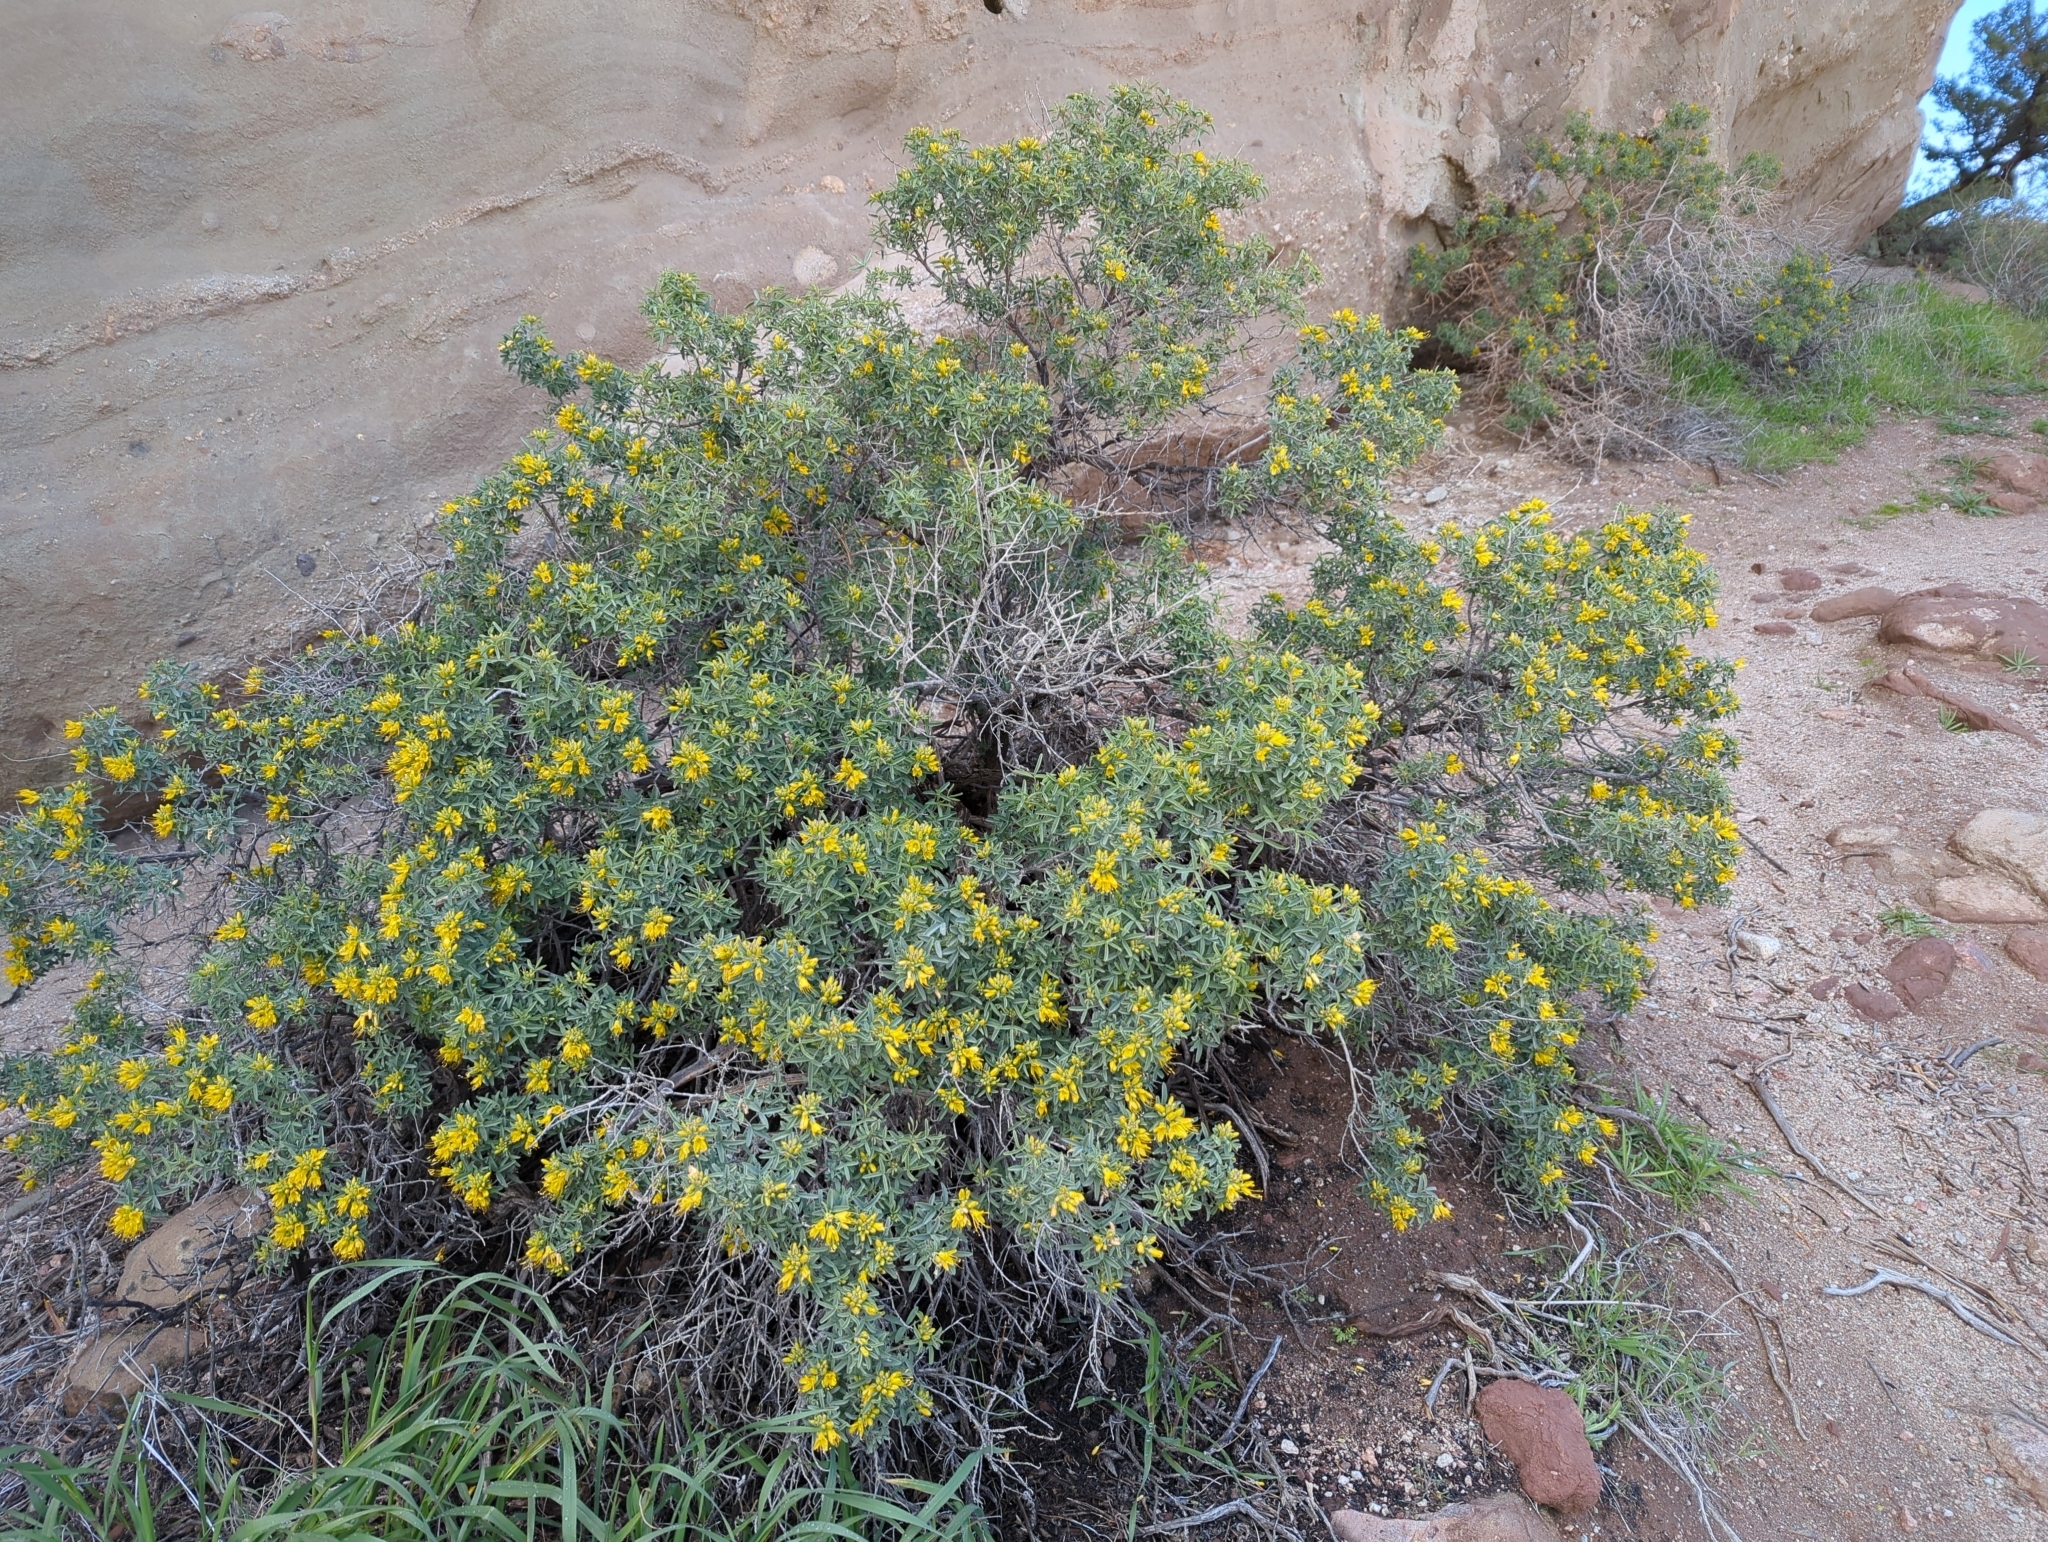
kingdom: Plantae
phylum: Tracheophyta
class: Magnoliopsida
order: Brassicales
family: Cleomaceae
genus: Cleomella
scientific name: Cleomella arborea
